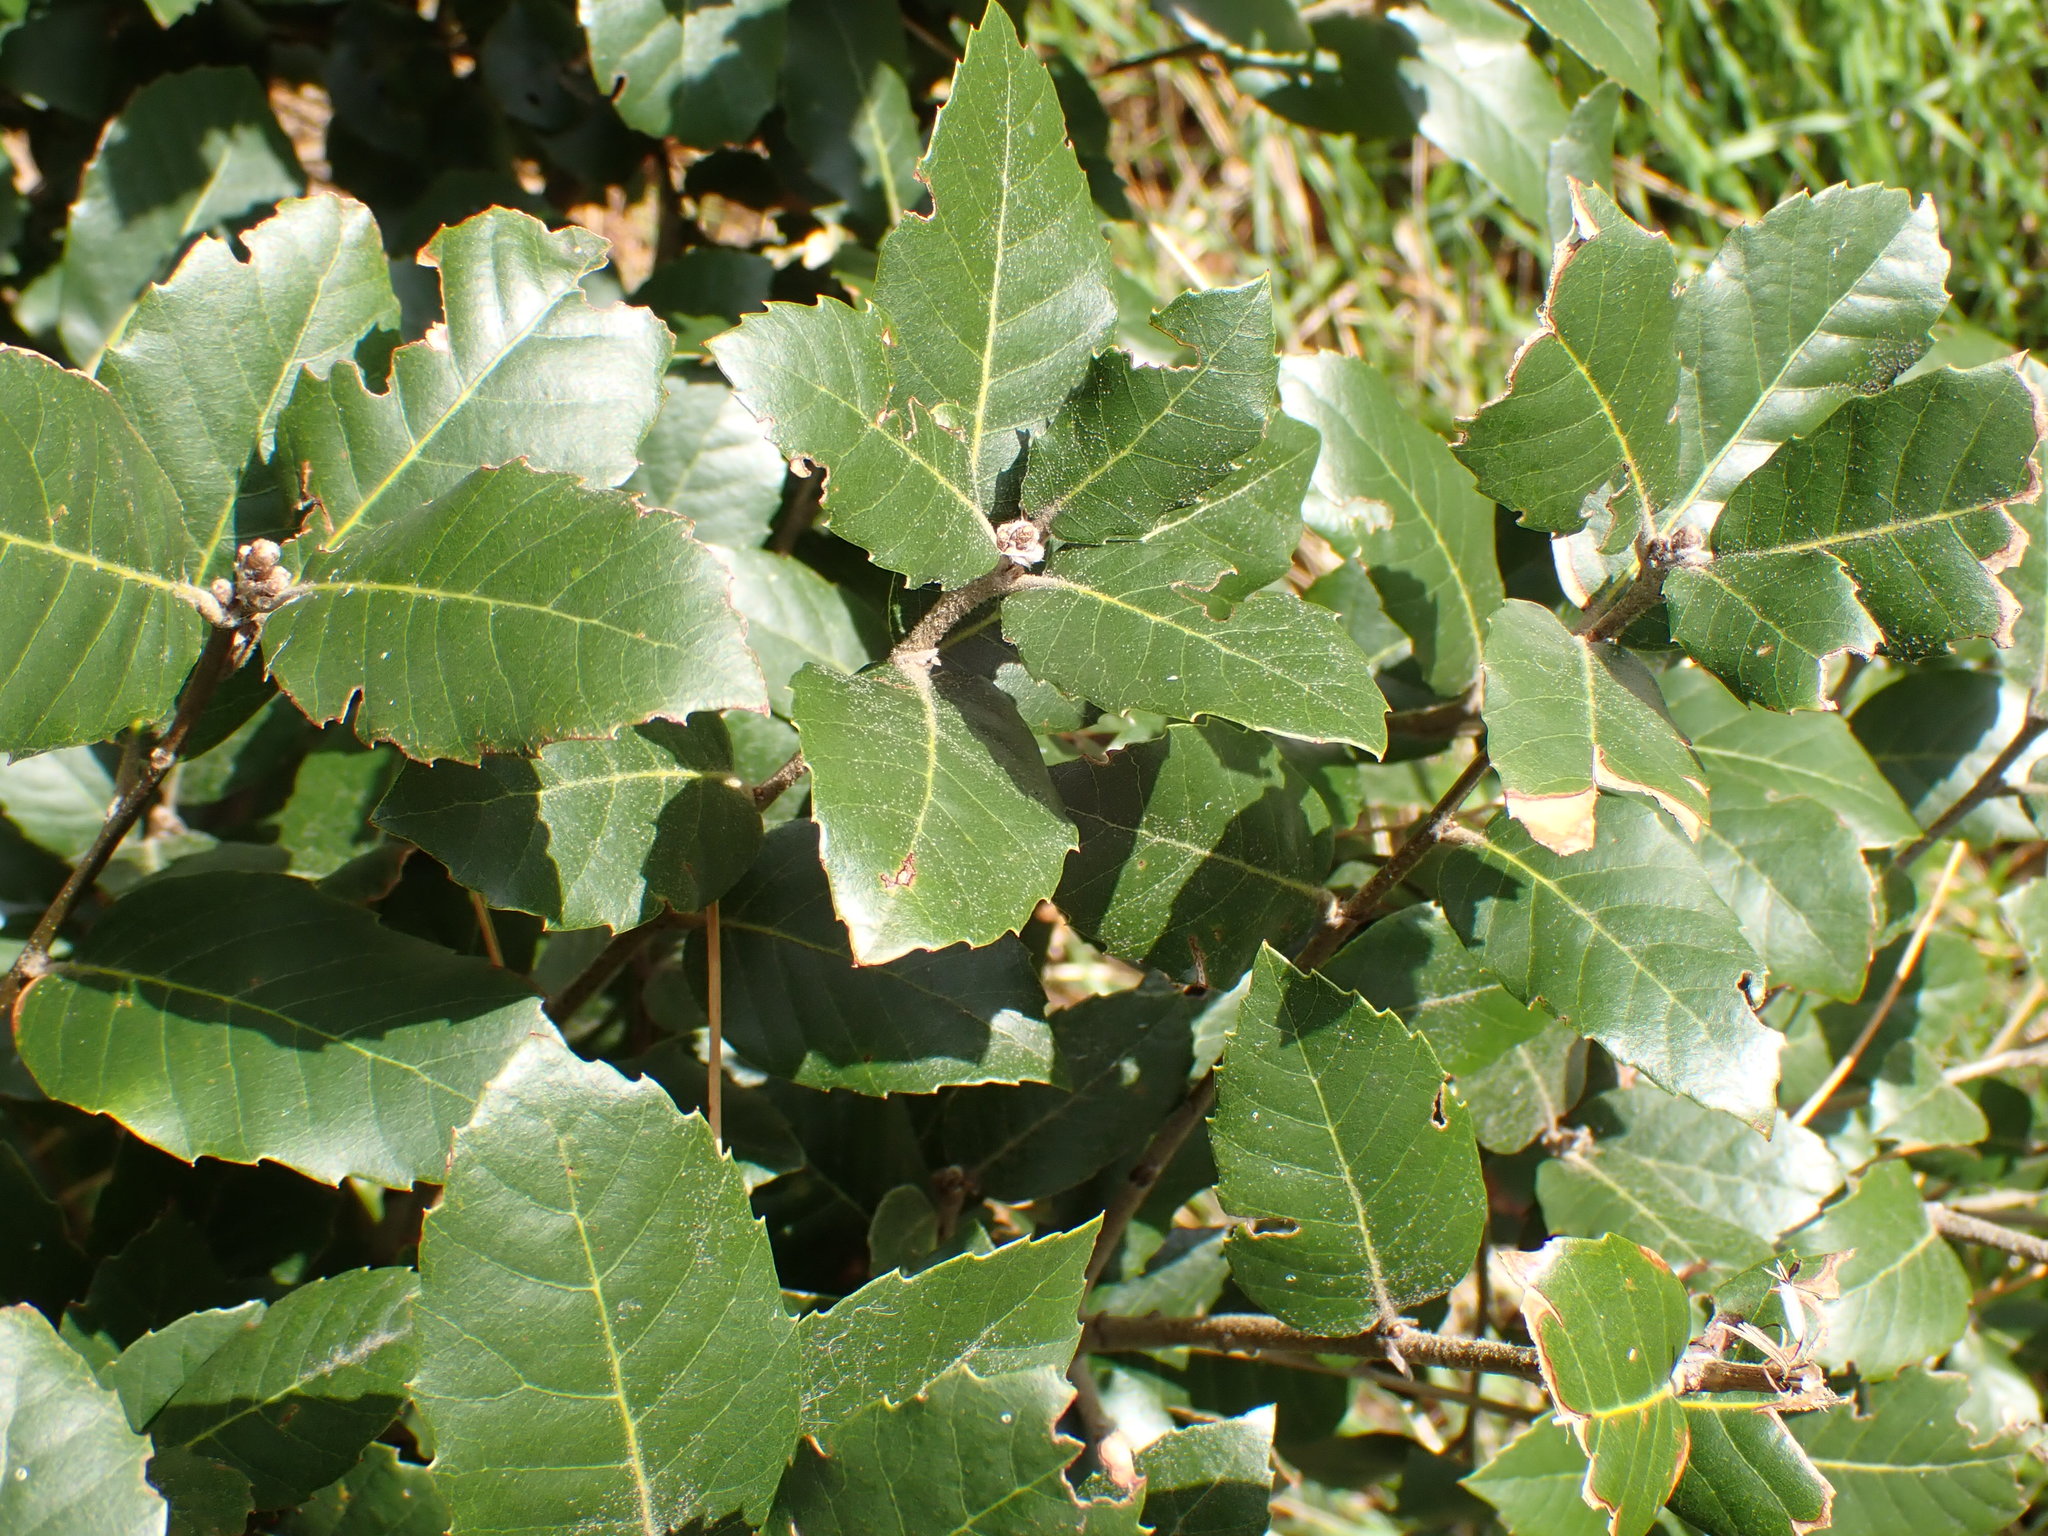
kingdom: Plantae
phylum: Tracheophyta
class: Magnoliopsida
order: Fagales
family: Fagaceae
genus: Quercus
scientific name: Quercus ilex
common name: Evergreen oak
